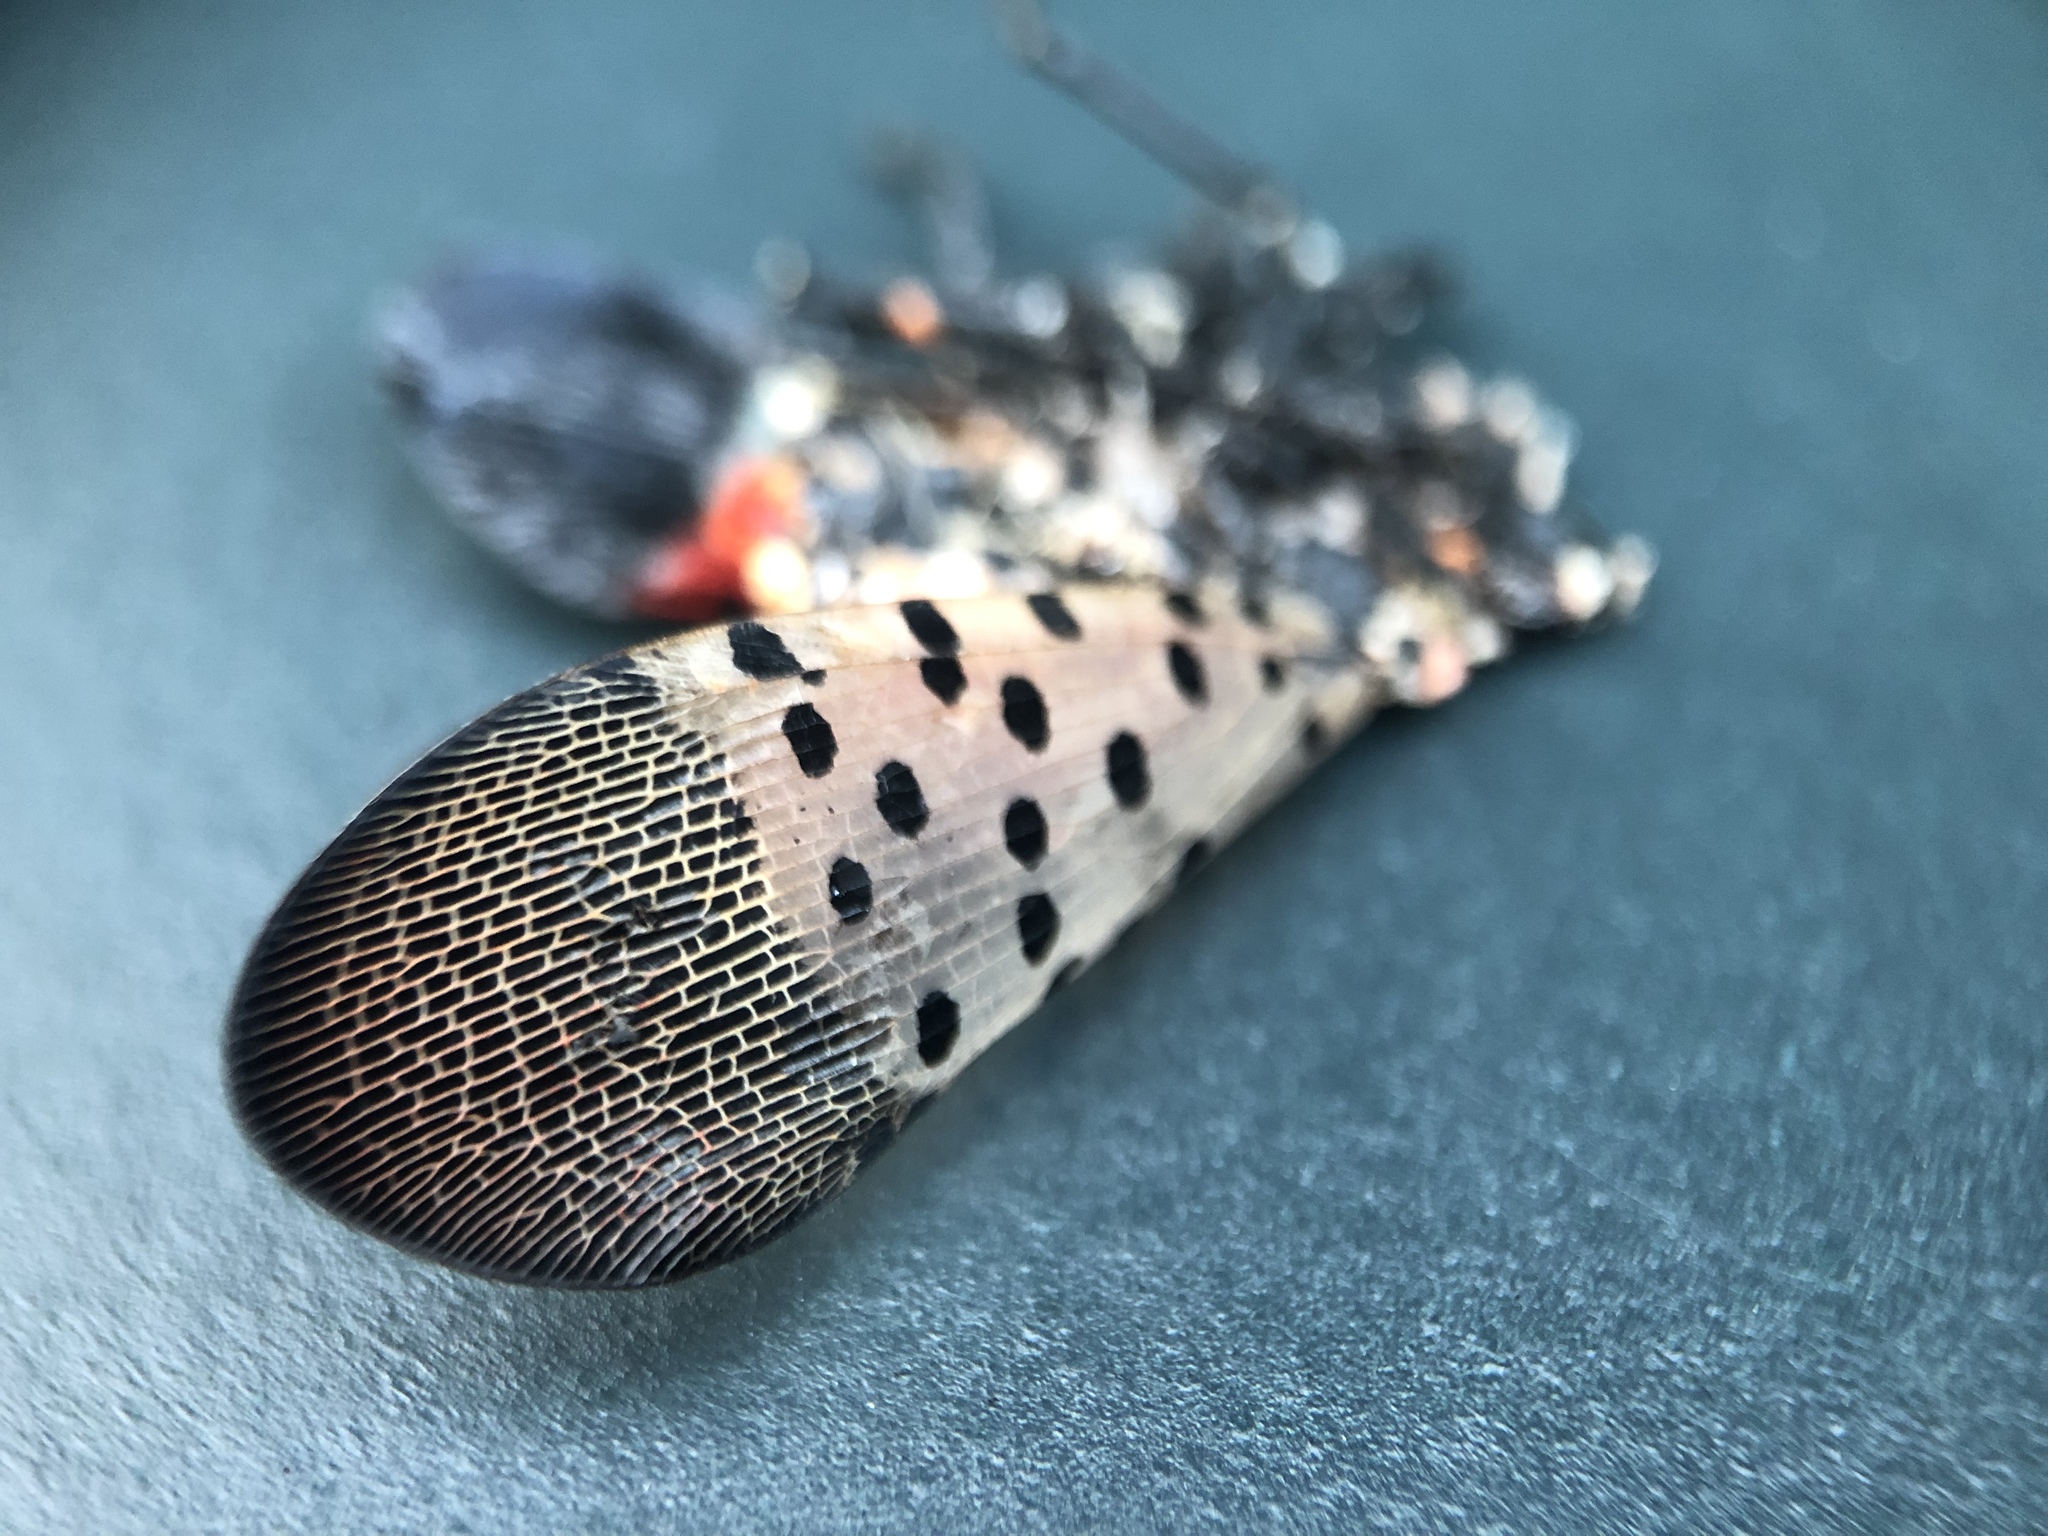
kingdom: Animalia
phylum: Arthropoda
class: Insecta
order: Hemiptera
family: Fulgoridae
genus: Lycorma
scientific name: Lycorma delicatula
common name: Spotted lanternfly
